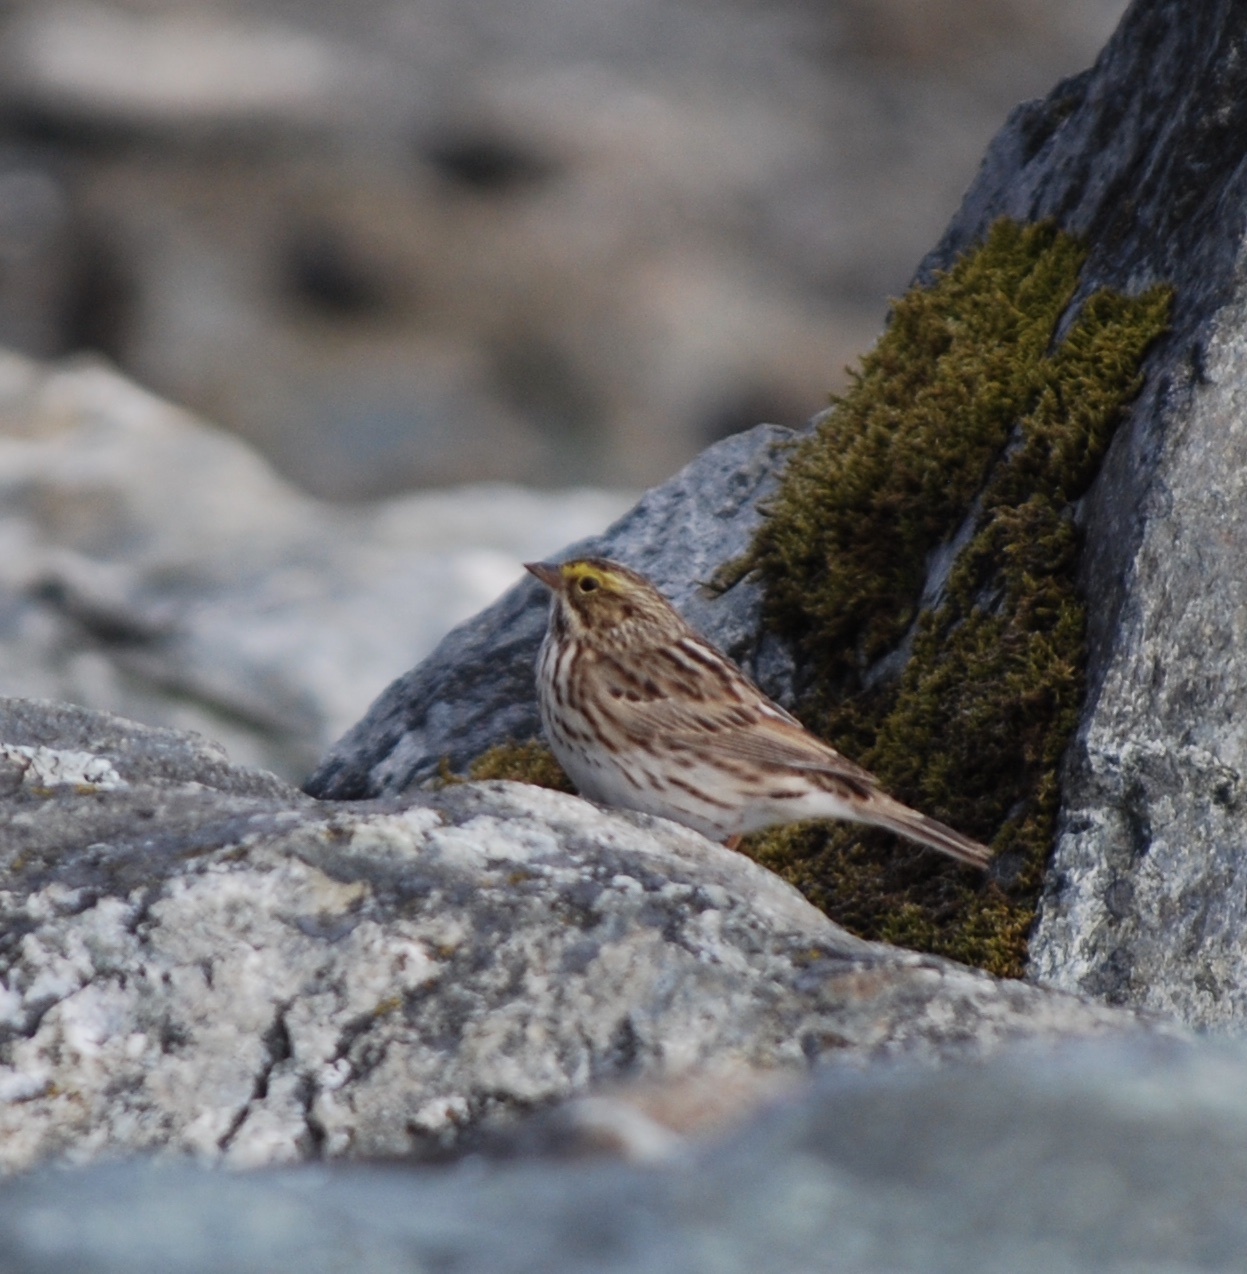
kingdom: Animalia
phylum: Chordata
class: Aves
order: Passeriformes
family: Passerellidae
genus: Passerculus
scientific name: Passerculus sandwichensis
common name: Savannah sparrow
